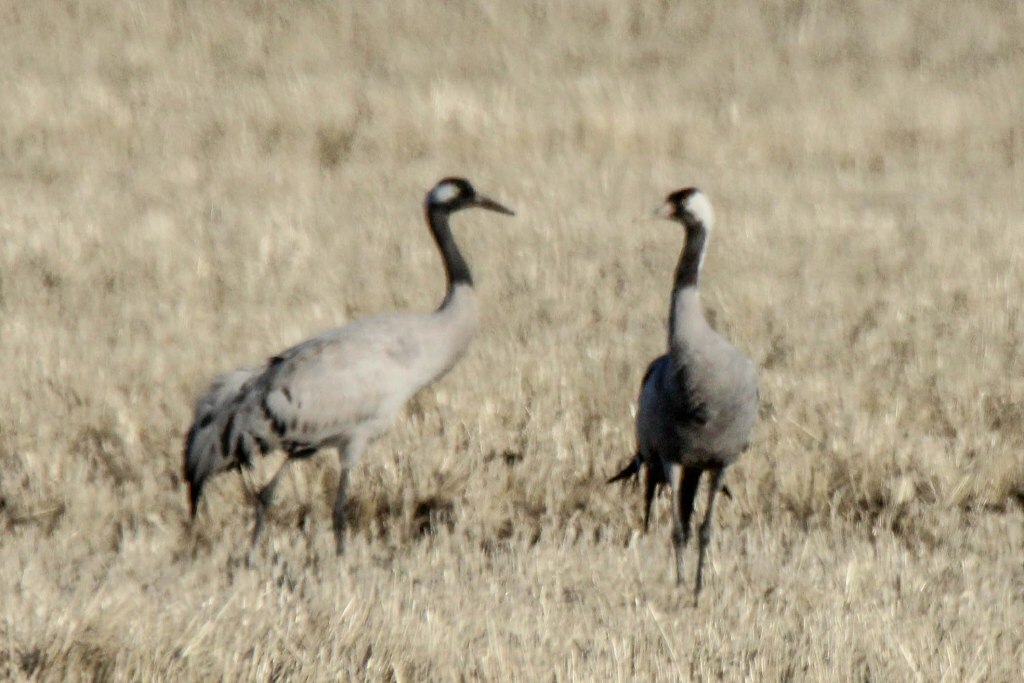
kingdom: Animalia
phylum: Chordata
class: Aves
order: Gruiformes
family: Gruidae
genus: Grus
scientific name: Grus grus
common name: Common crane
